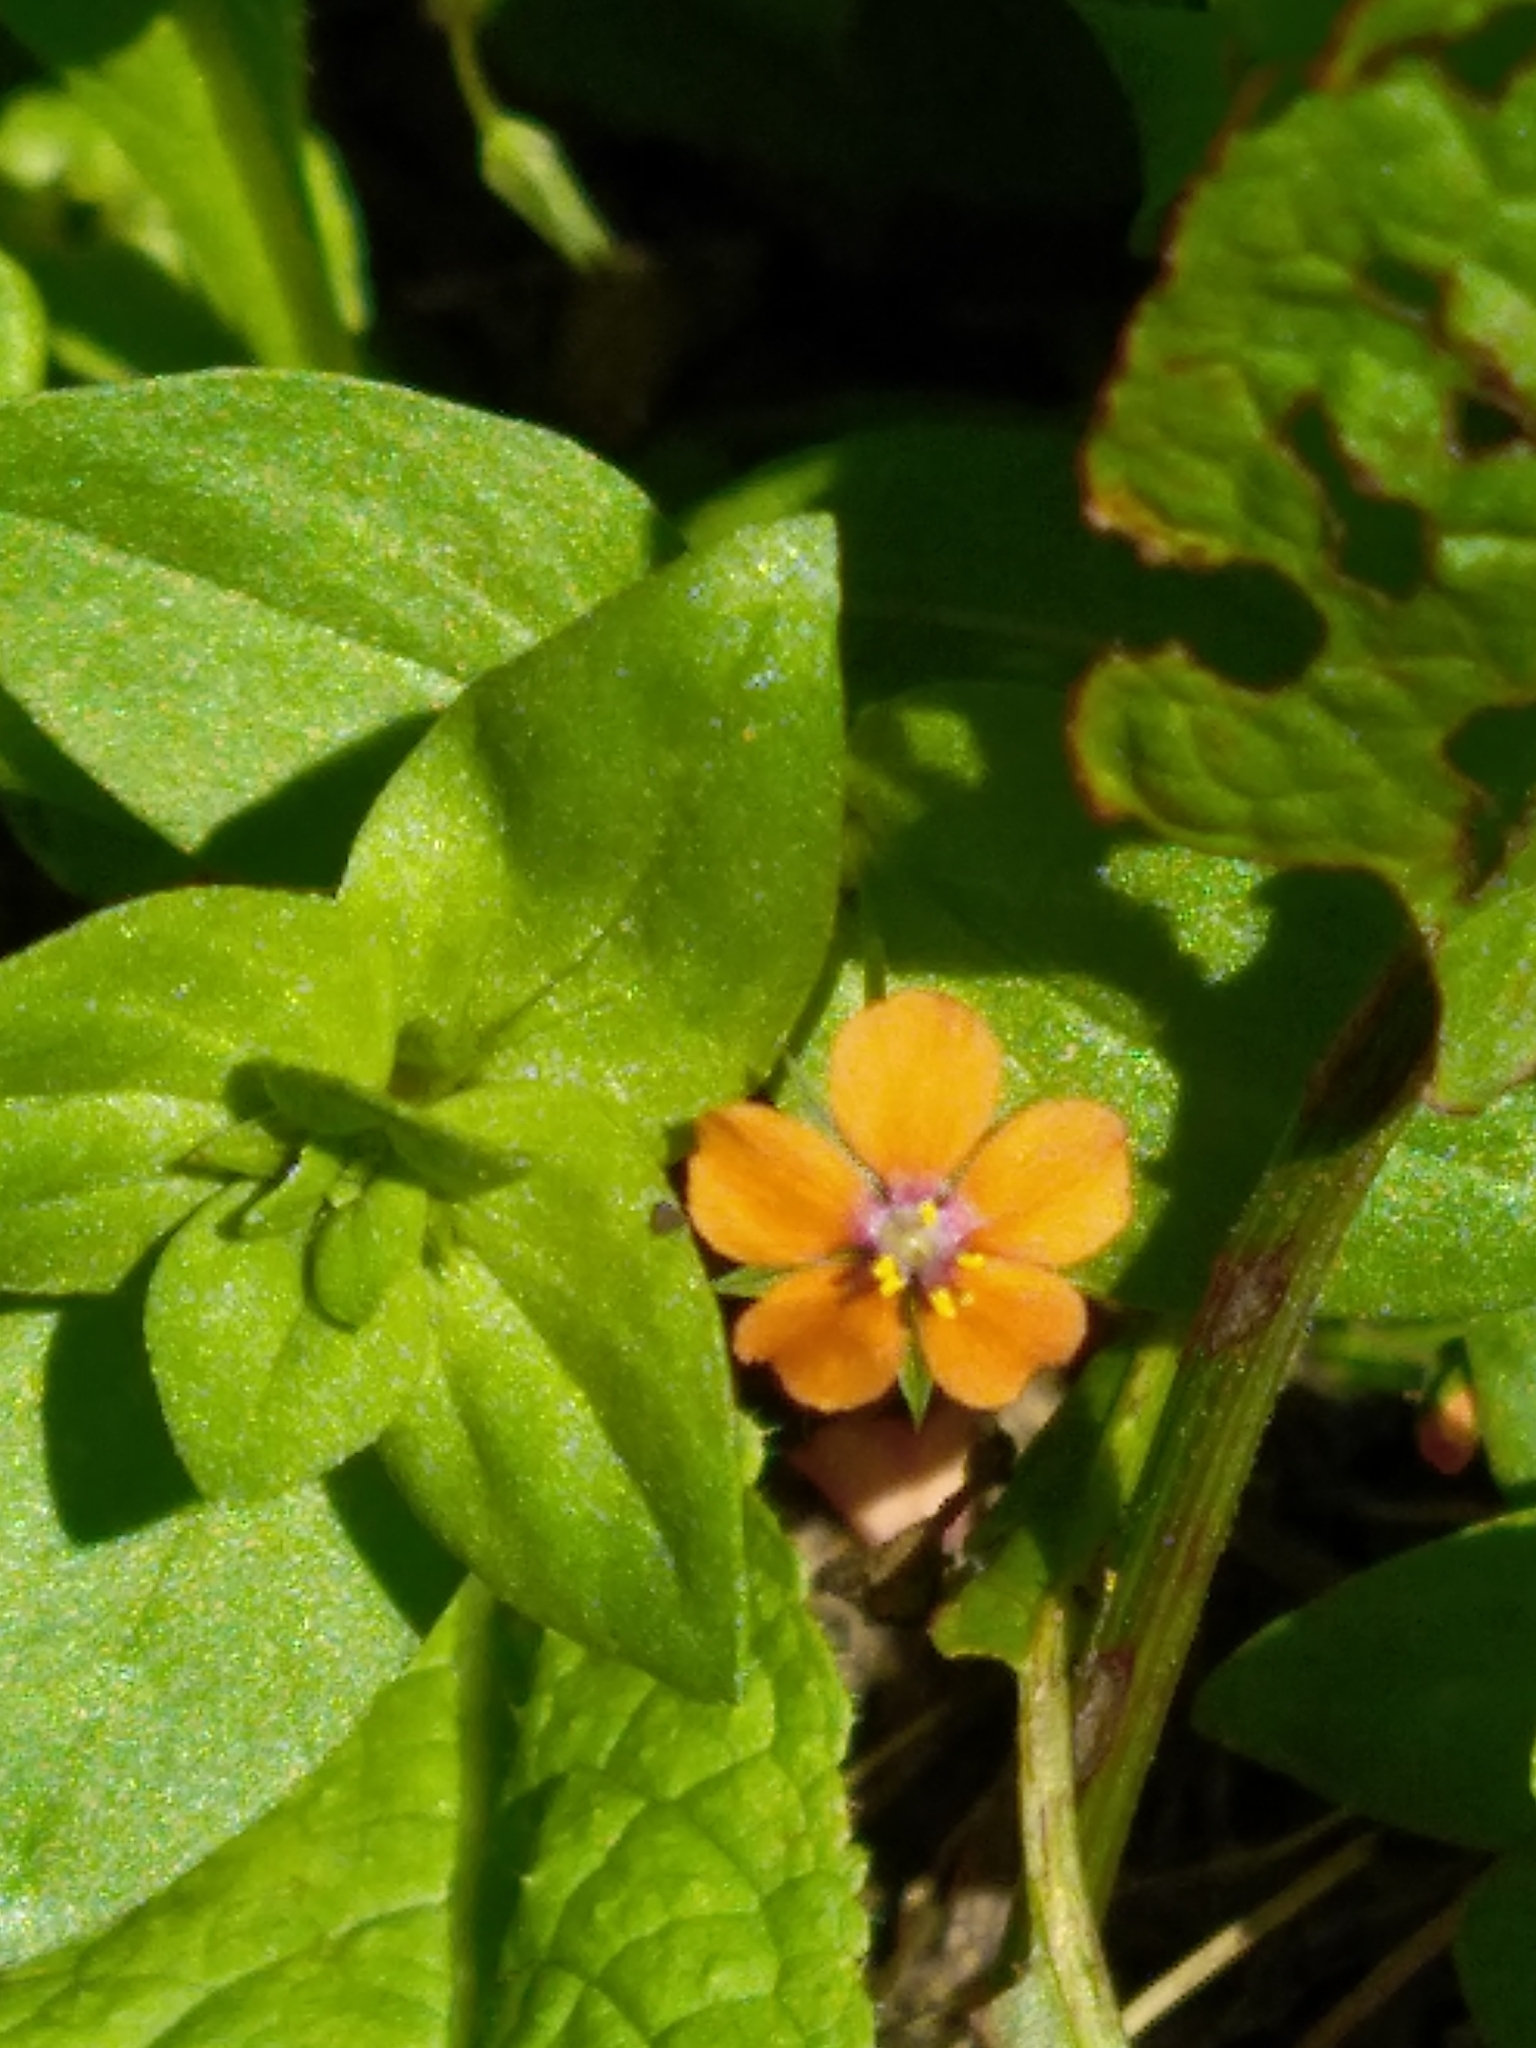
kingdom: Plantae
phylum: Tracheophyta
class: Magnoliopsida
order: Ericales
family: Primulaceae
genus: Lysimachia
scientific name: Lysimachia arvensis
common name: Scarlet pimpernel
